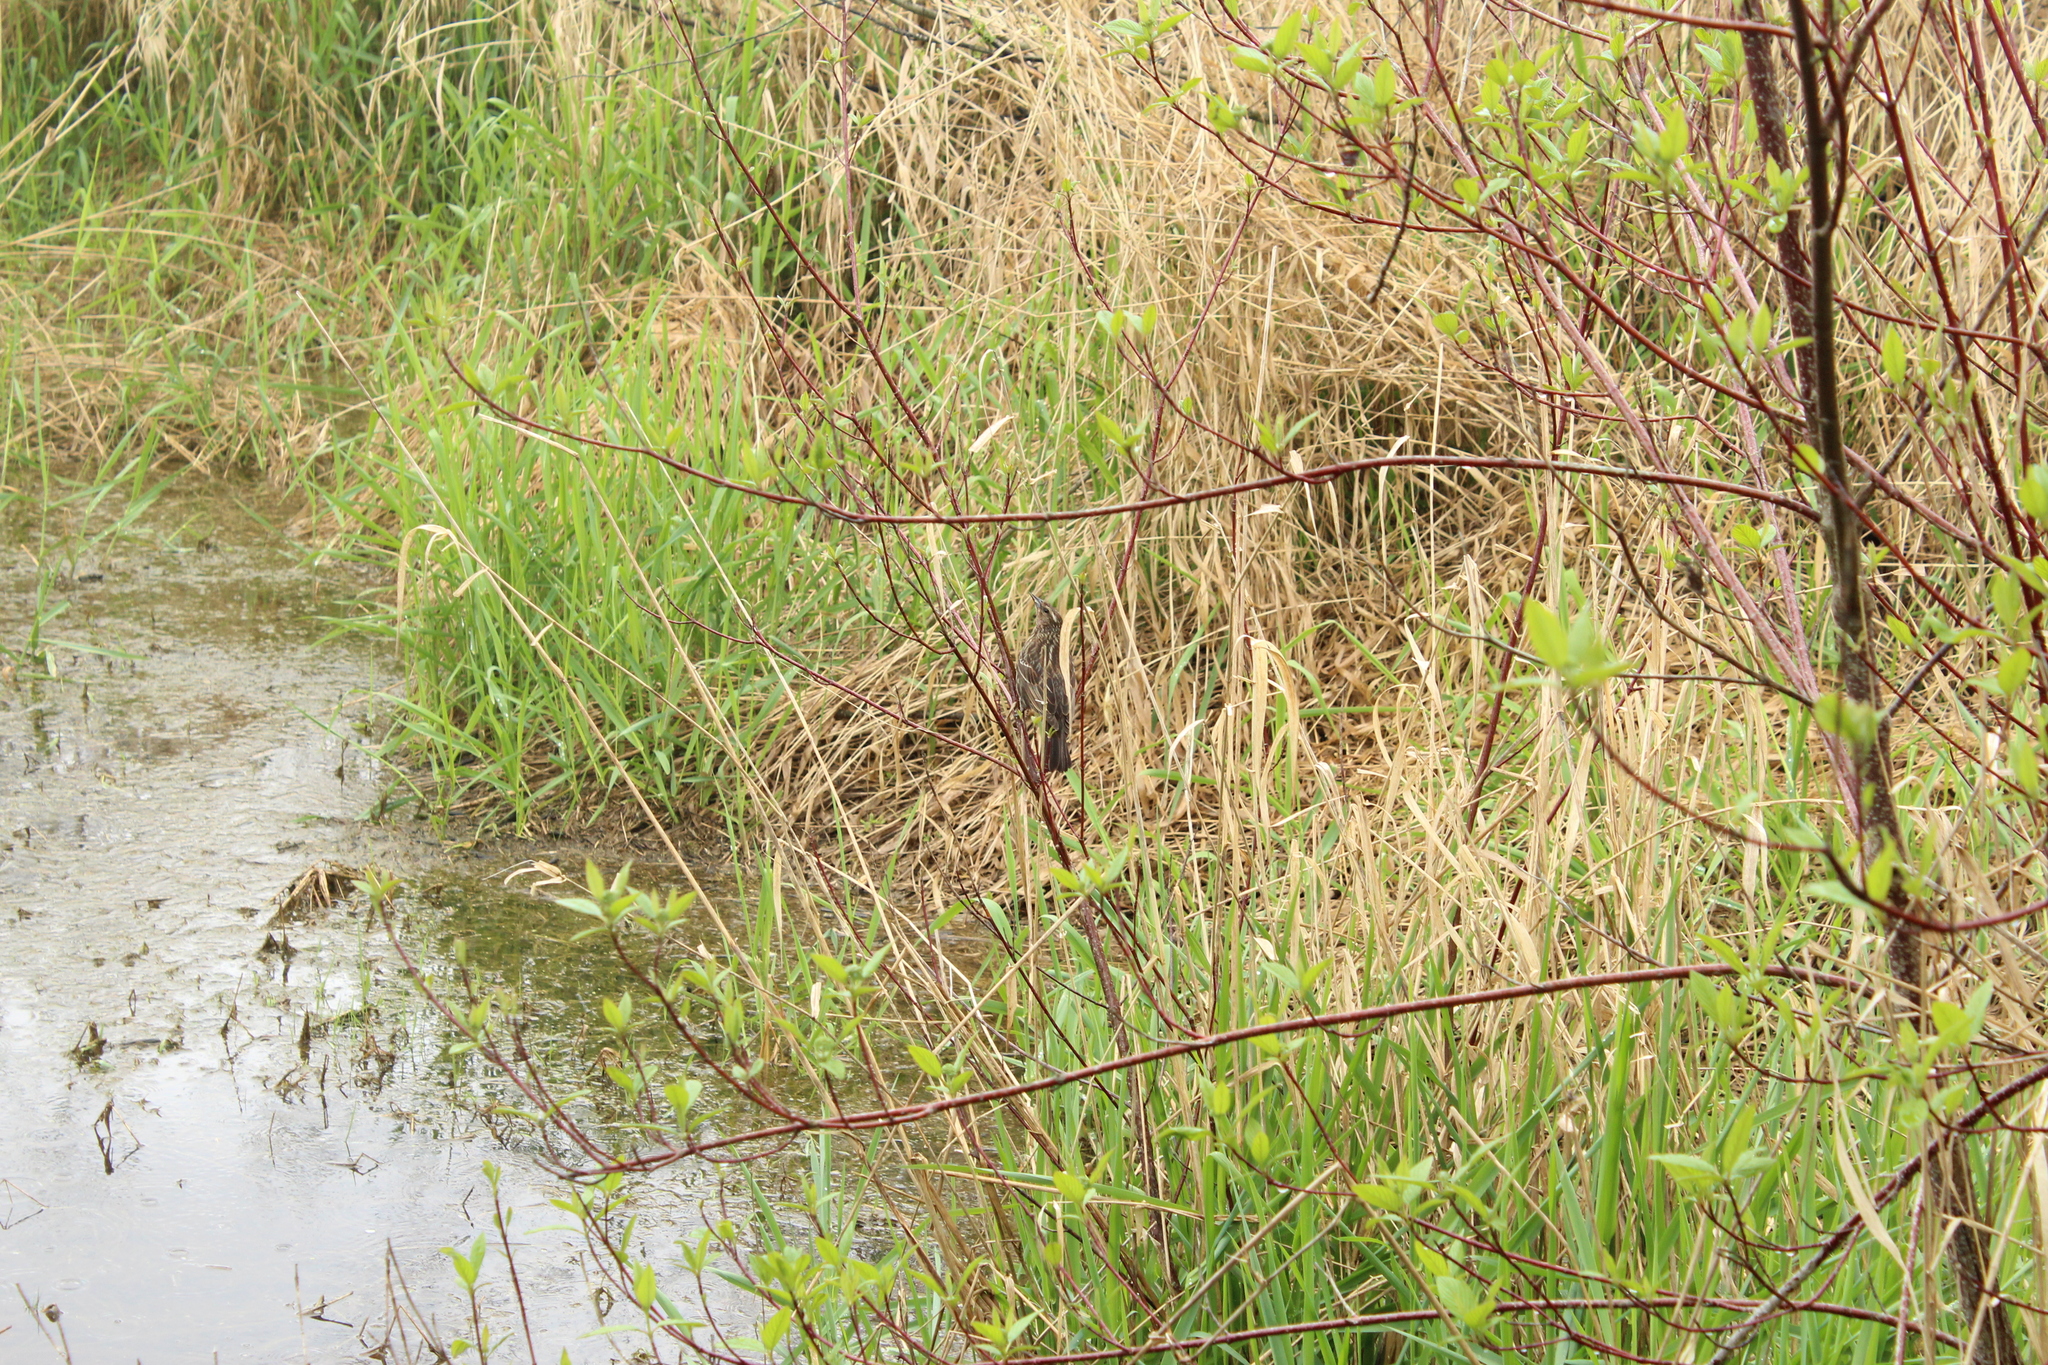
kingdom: Animalia
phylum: Chordata
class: Aves
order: Passeriformes
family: Icteridae
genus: Agelaius
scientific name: Agelaius phoeniceus
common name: Red-winged blackbird
